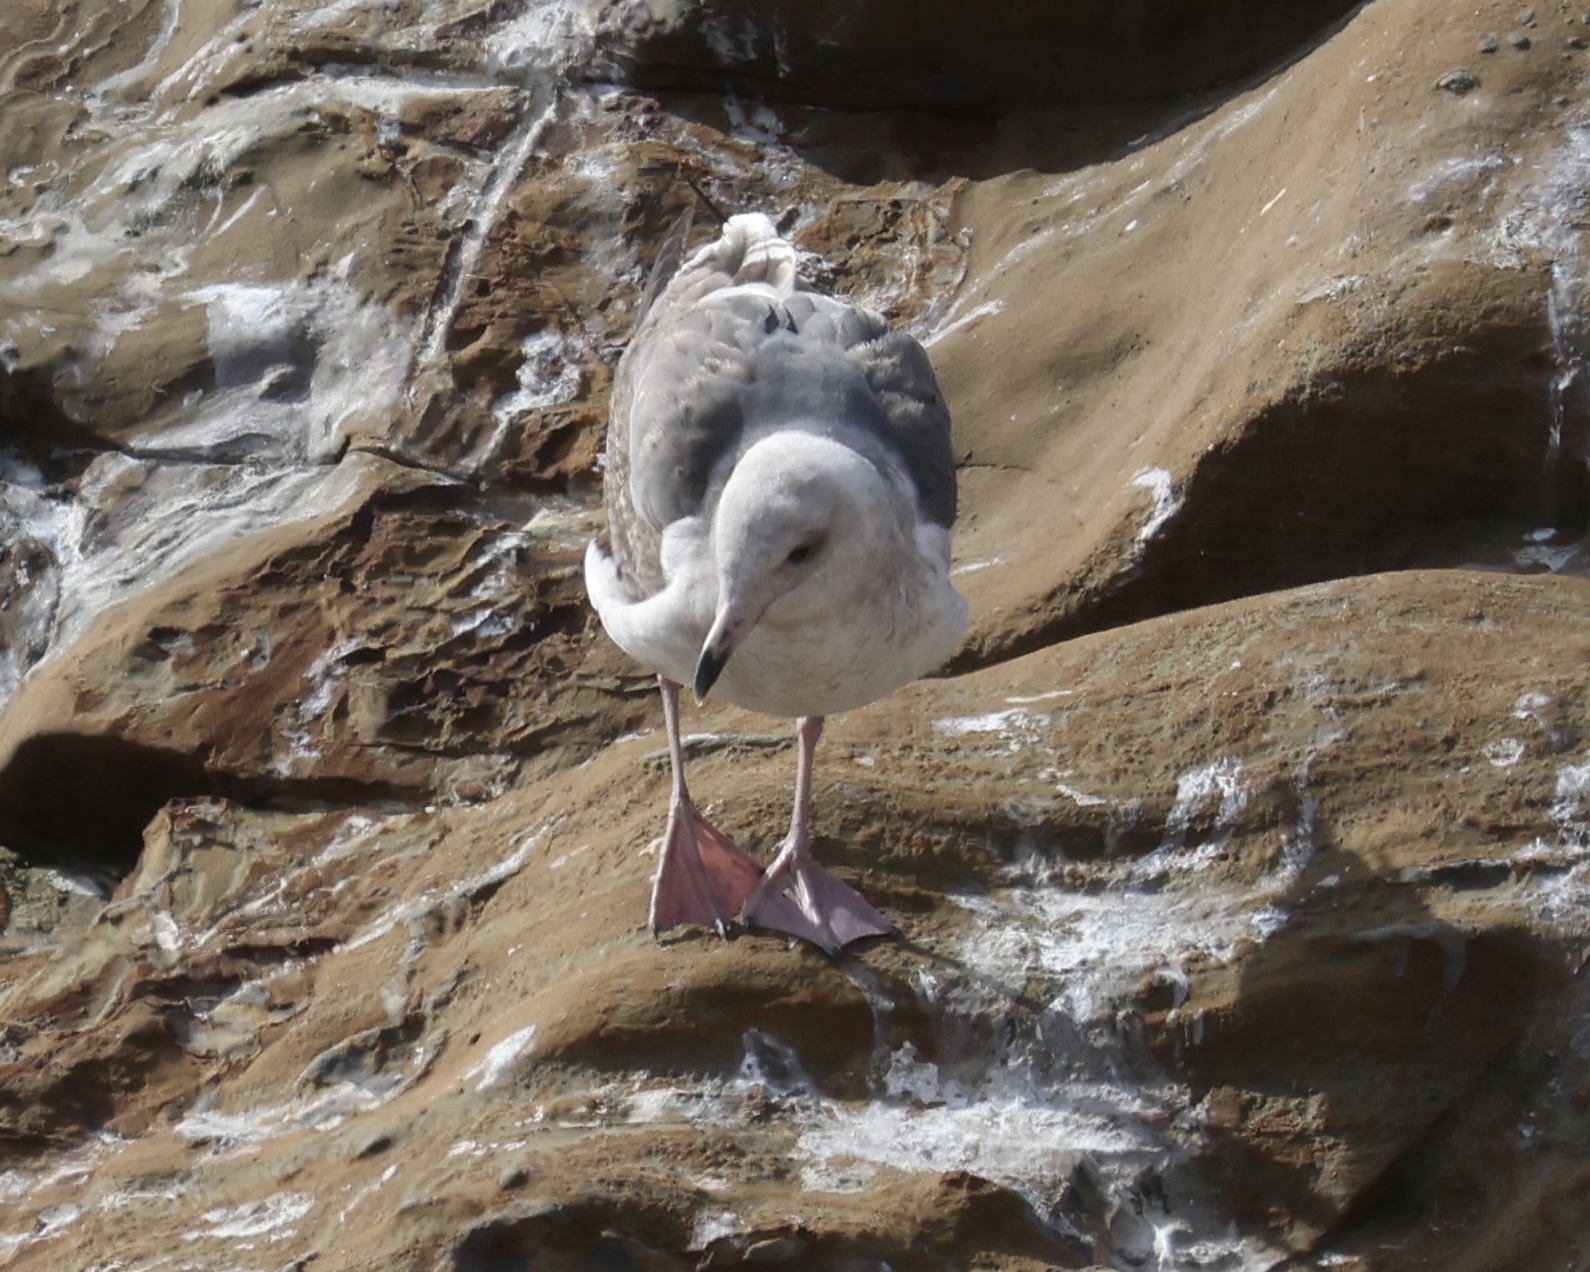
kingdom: Animalia
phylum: Chordata
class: Aves
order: Charadriiformes
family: Laridae
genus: Larus
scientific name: Larus occidentalis
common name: Western gull
